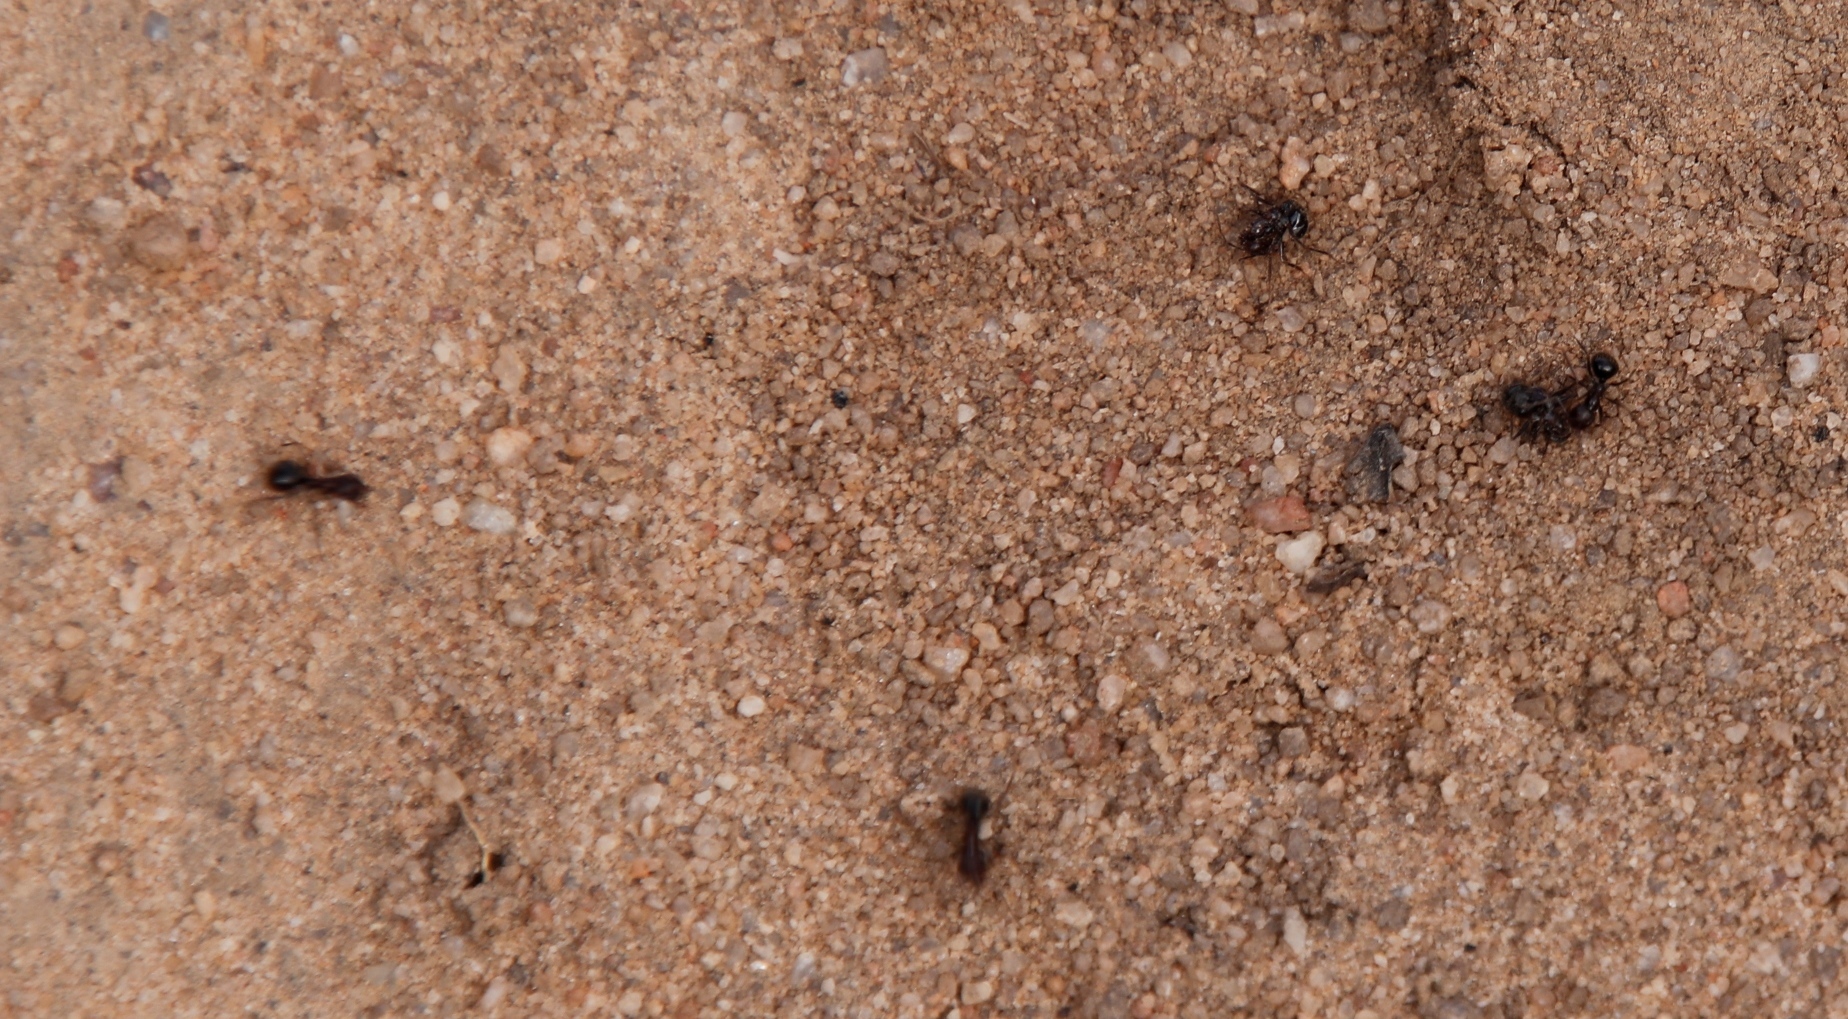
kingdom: Animalia
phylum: Arthropoda
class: Insecta
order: Hymenoptera
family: Formicidae
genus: Anoplolepis
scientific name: Anoplolepis steingroeveri
